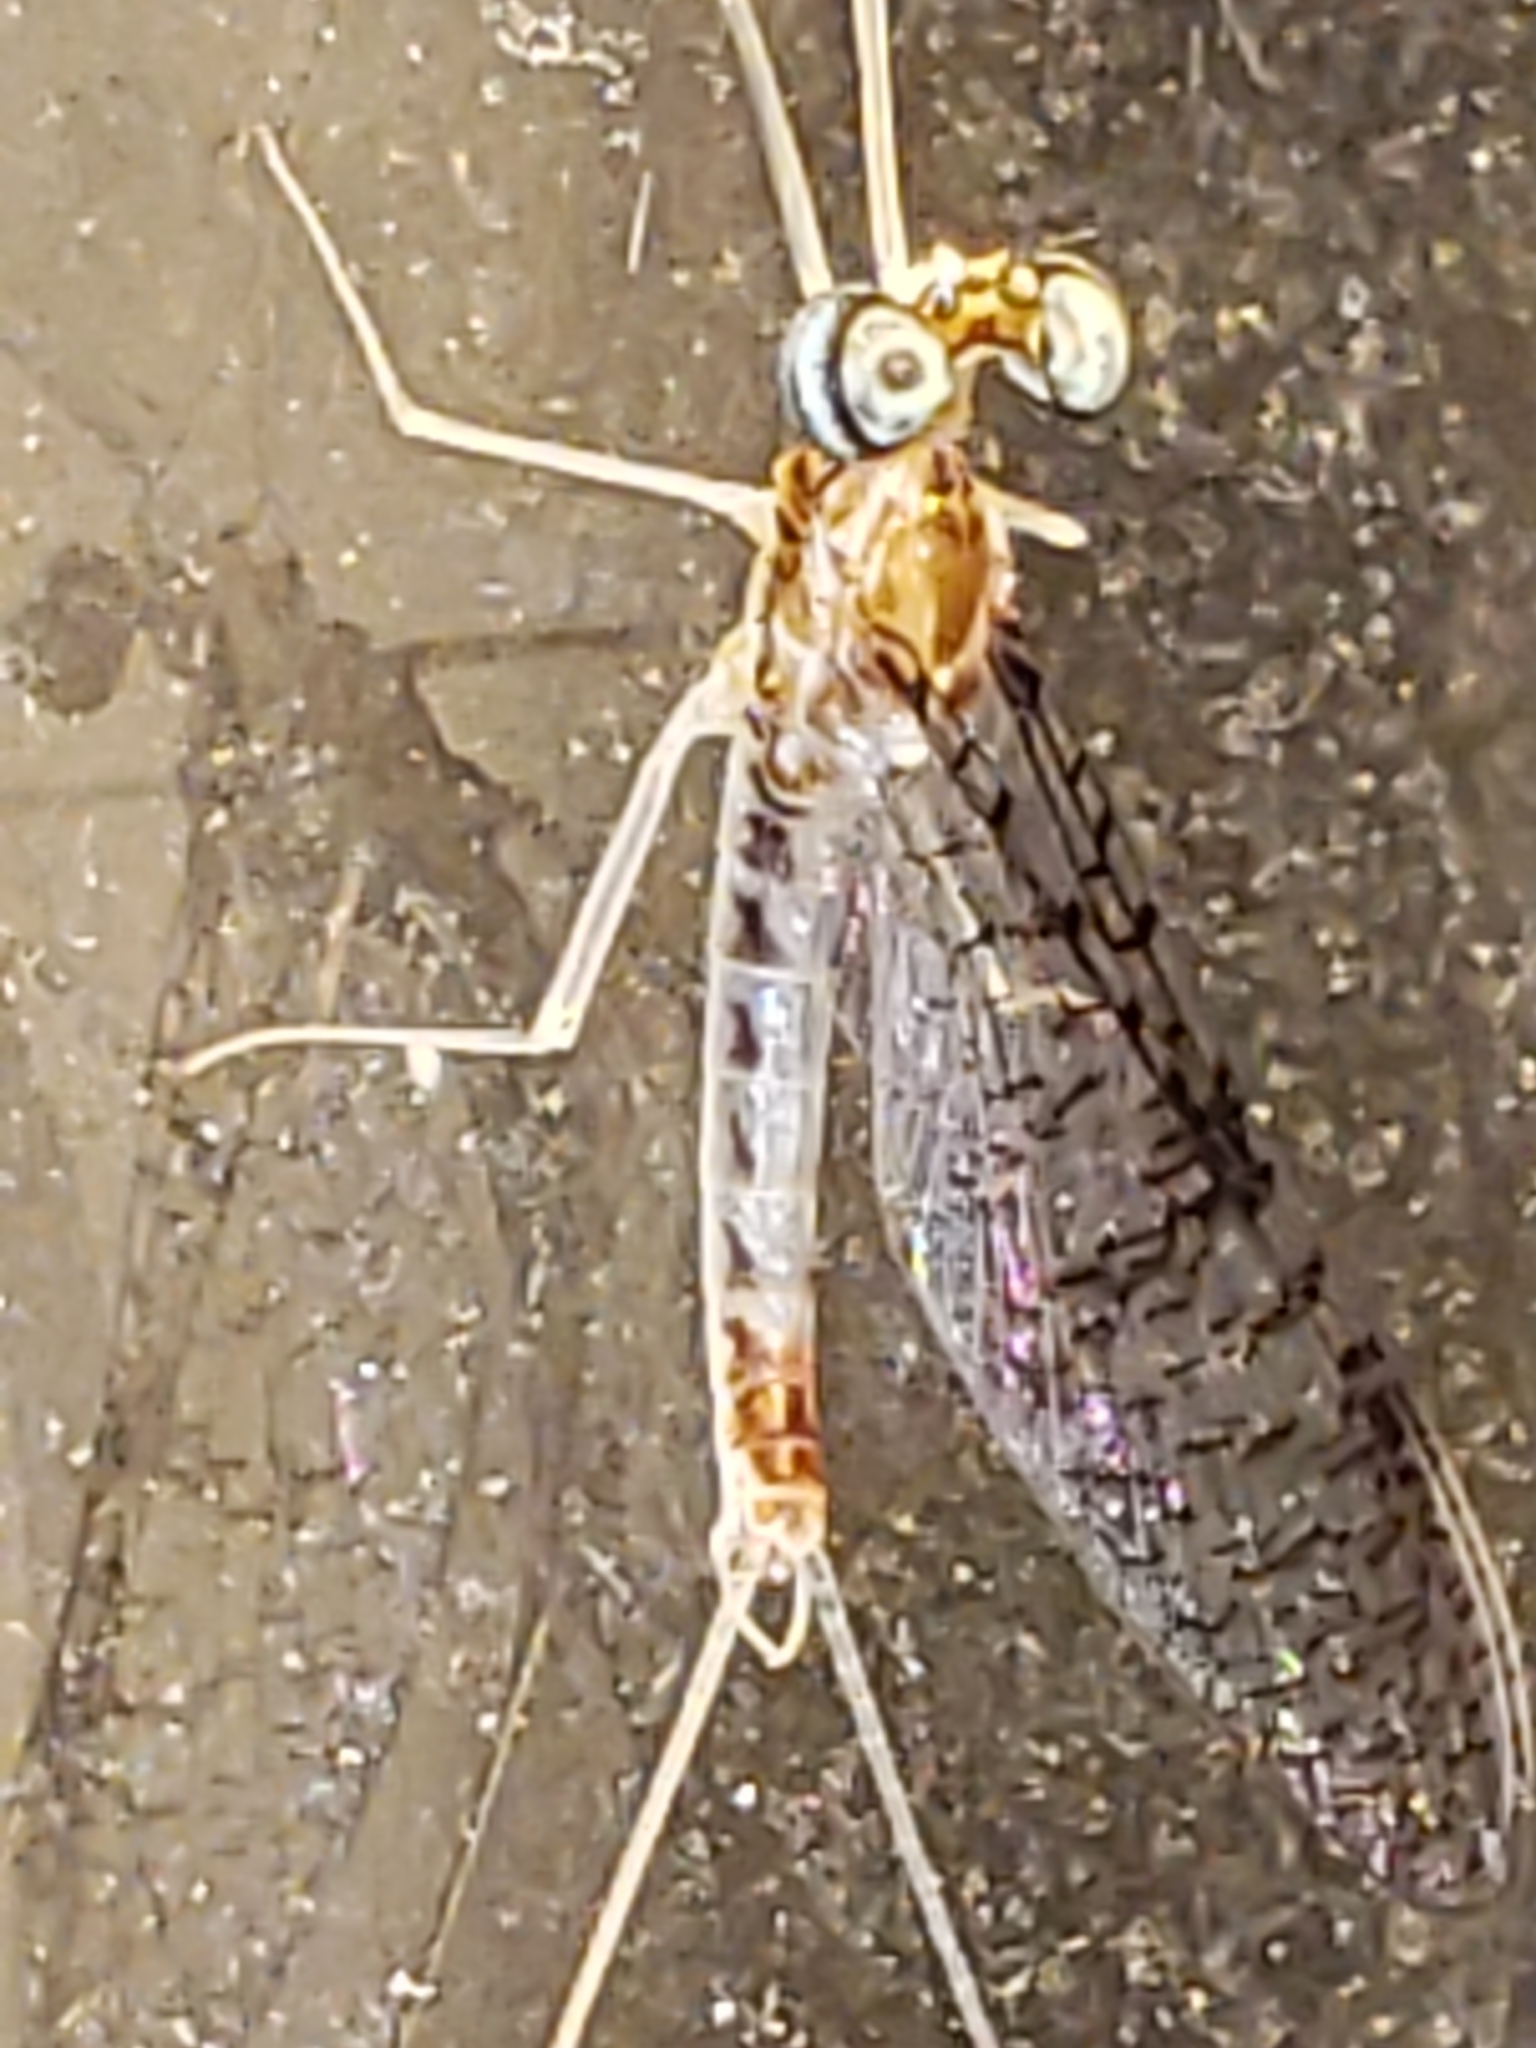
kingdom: Animalia
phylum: Arthropoda
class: Insecta
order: Ephemeroptera
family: Heptageniidae
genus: Leucrocuta
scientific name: Leucrocuta minerva
